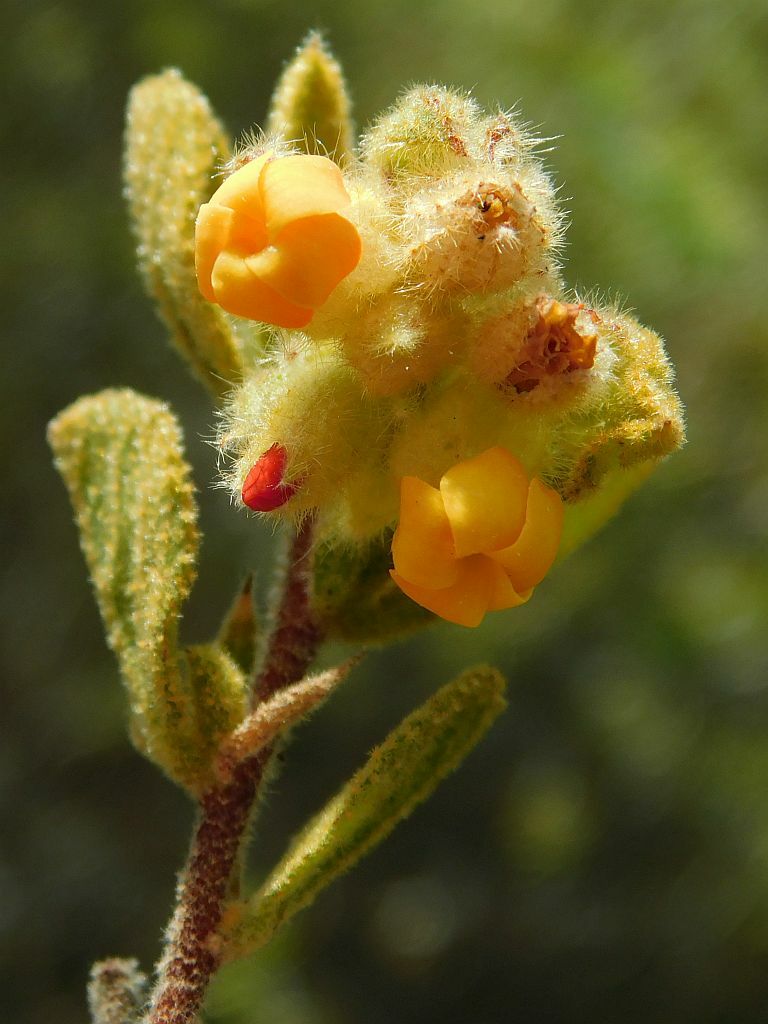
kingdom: Plantae
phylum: Tracheophyta
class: Magnoliopsida
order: Malvales
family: Malvaceae
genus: Hermannia
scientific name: Hermannia salviifolia
